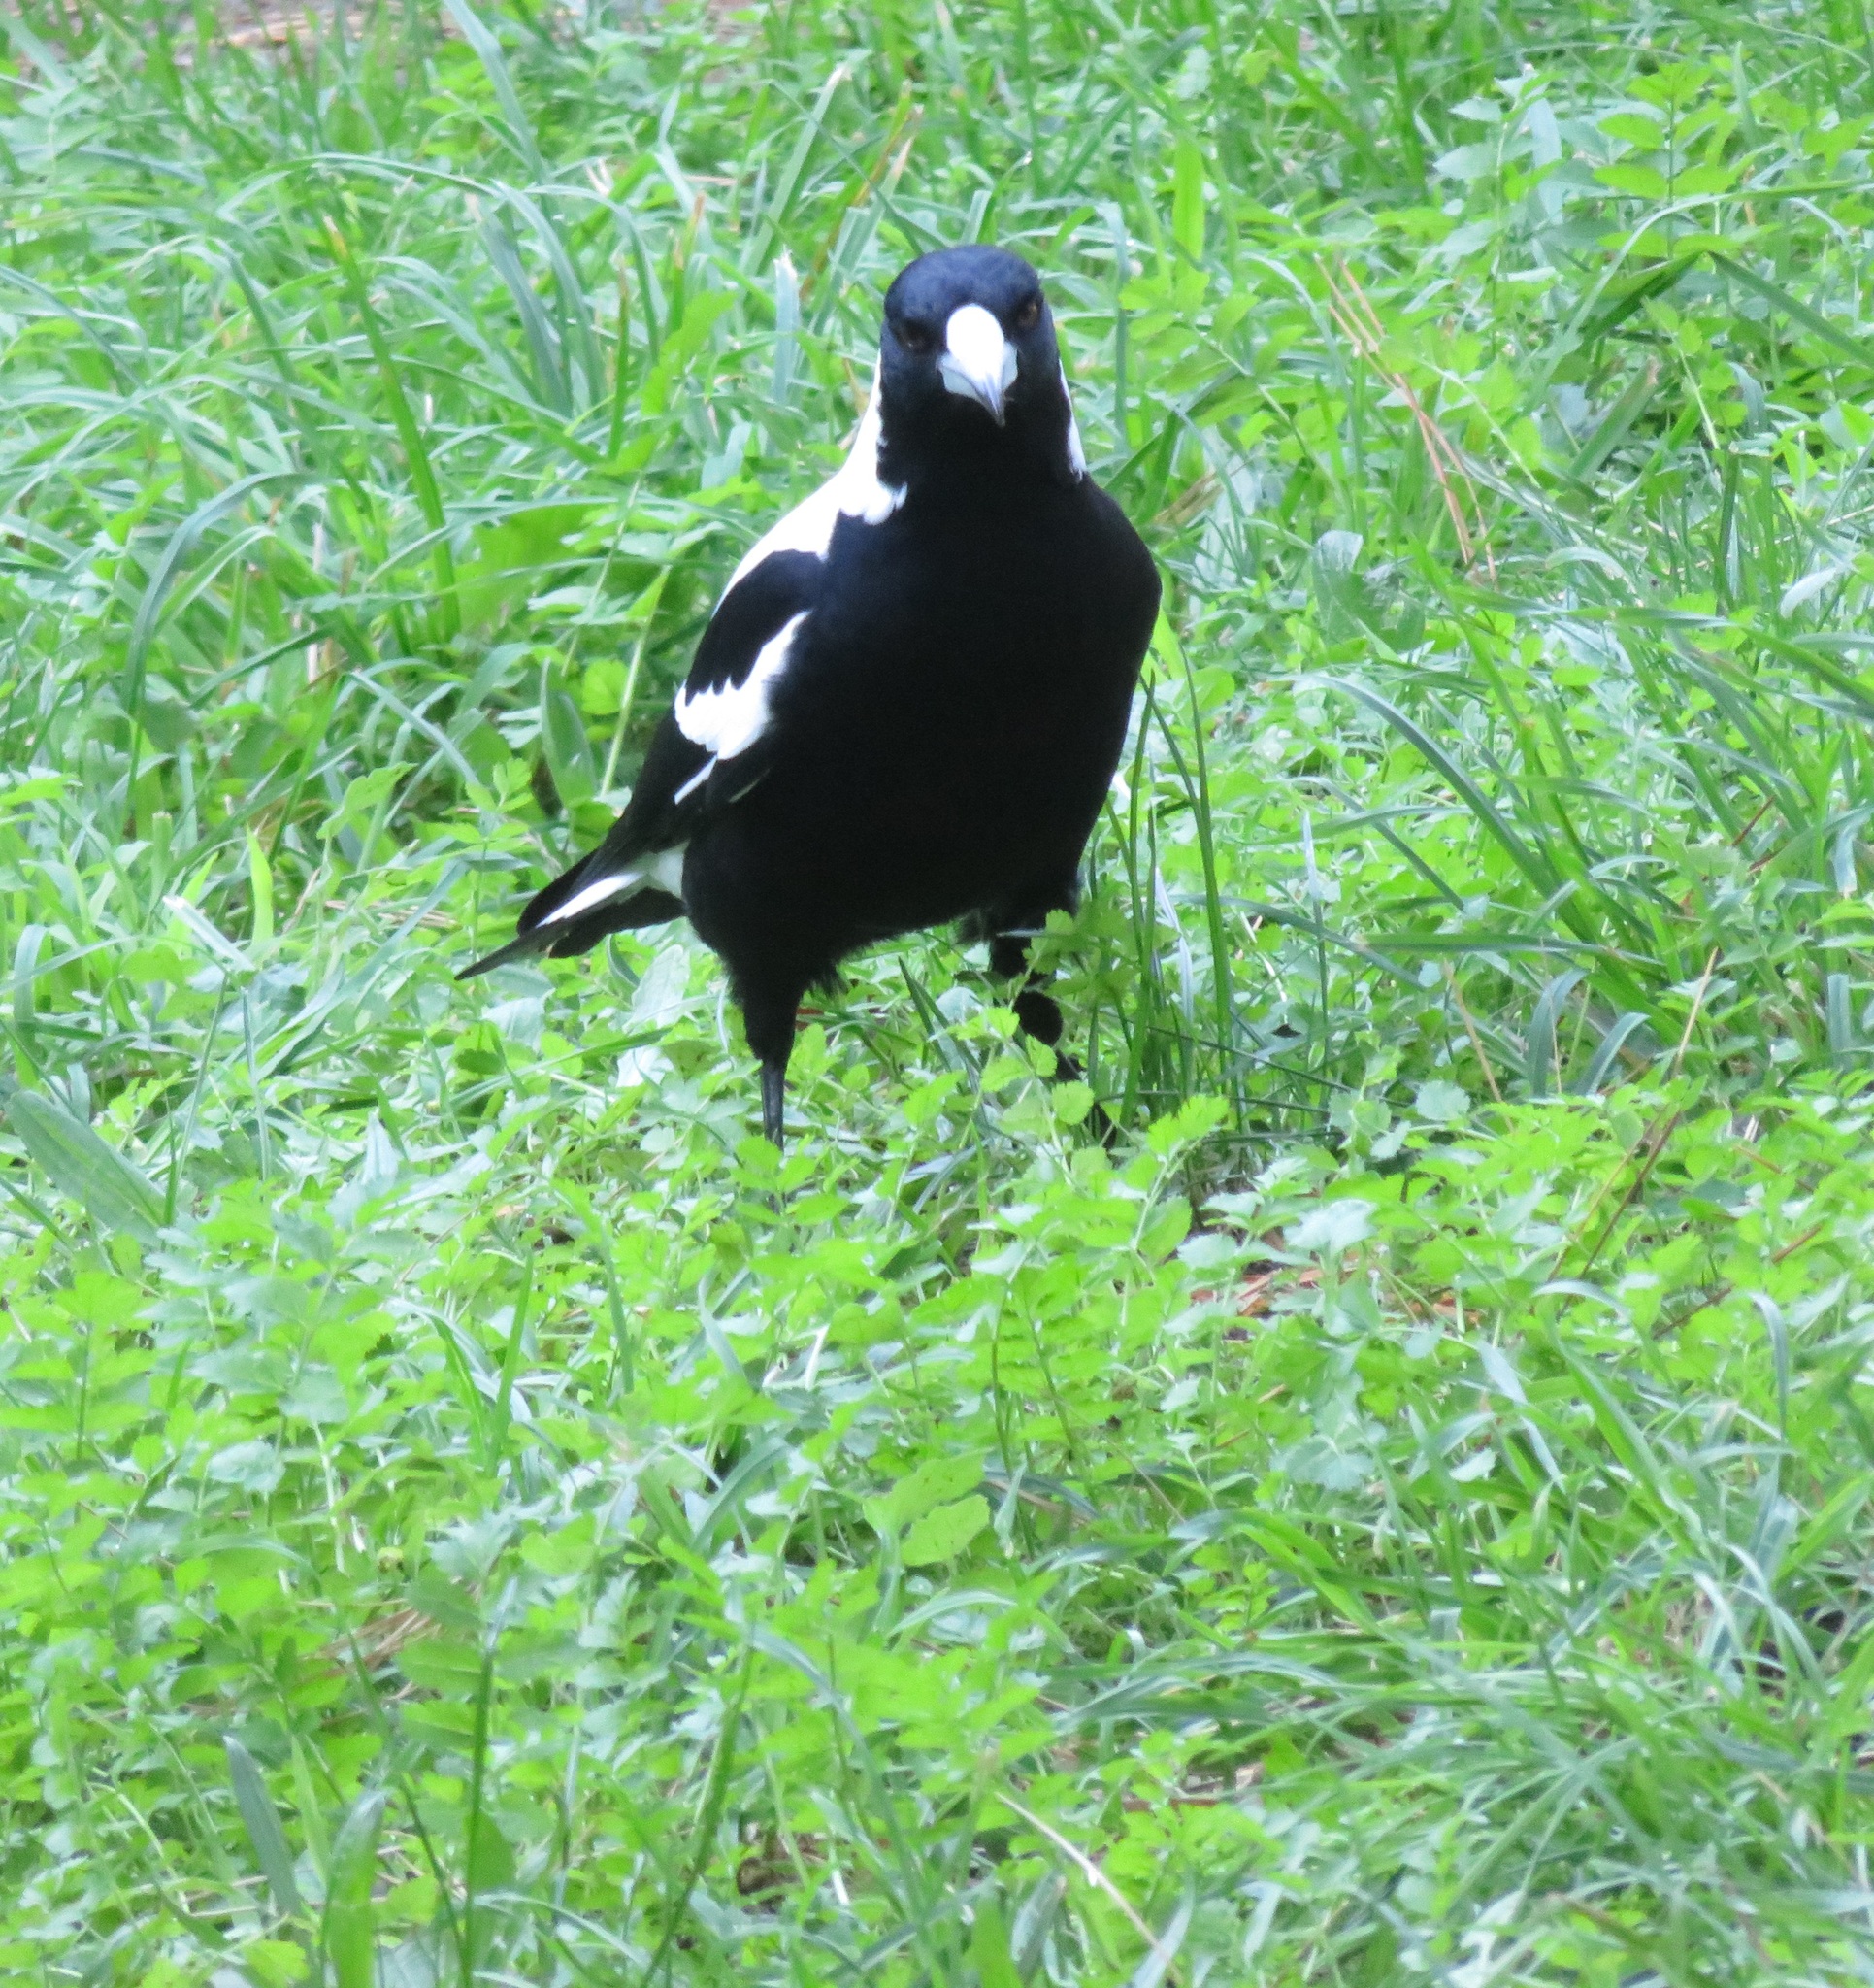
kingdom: Animalia
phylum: Chordata
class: Aves
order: Passeriformes
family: Cracticidae
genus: Gymnorhina
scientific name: Gymnorhina tibicen
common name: Australian magpie
